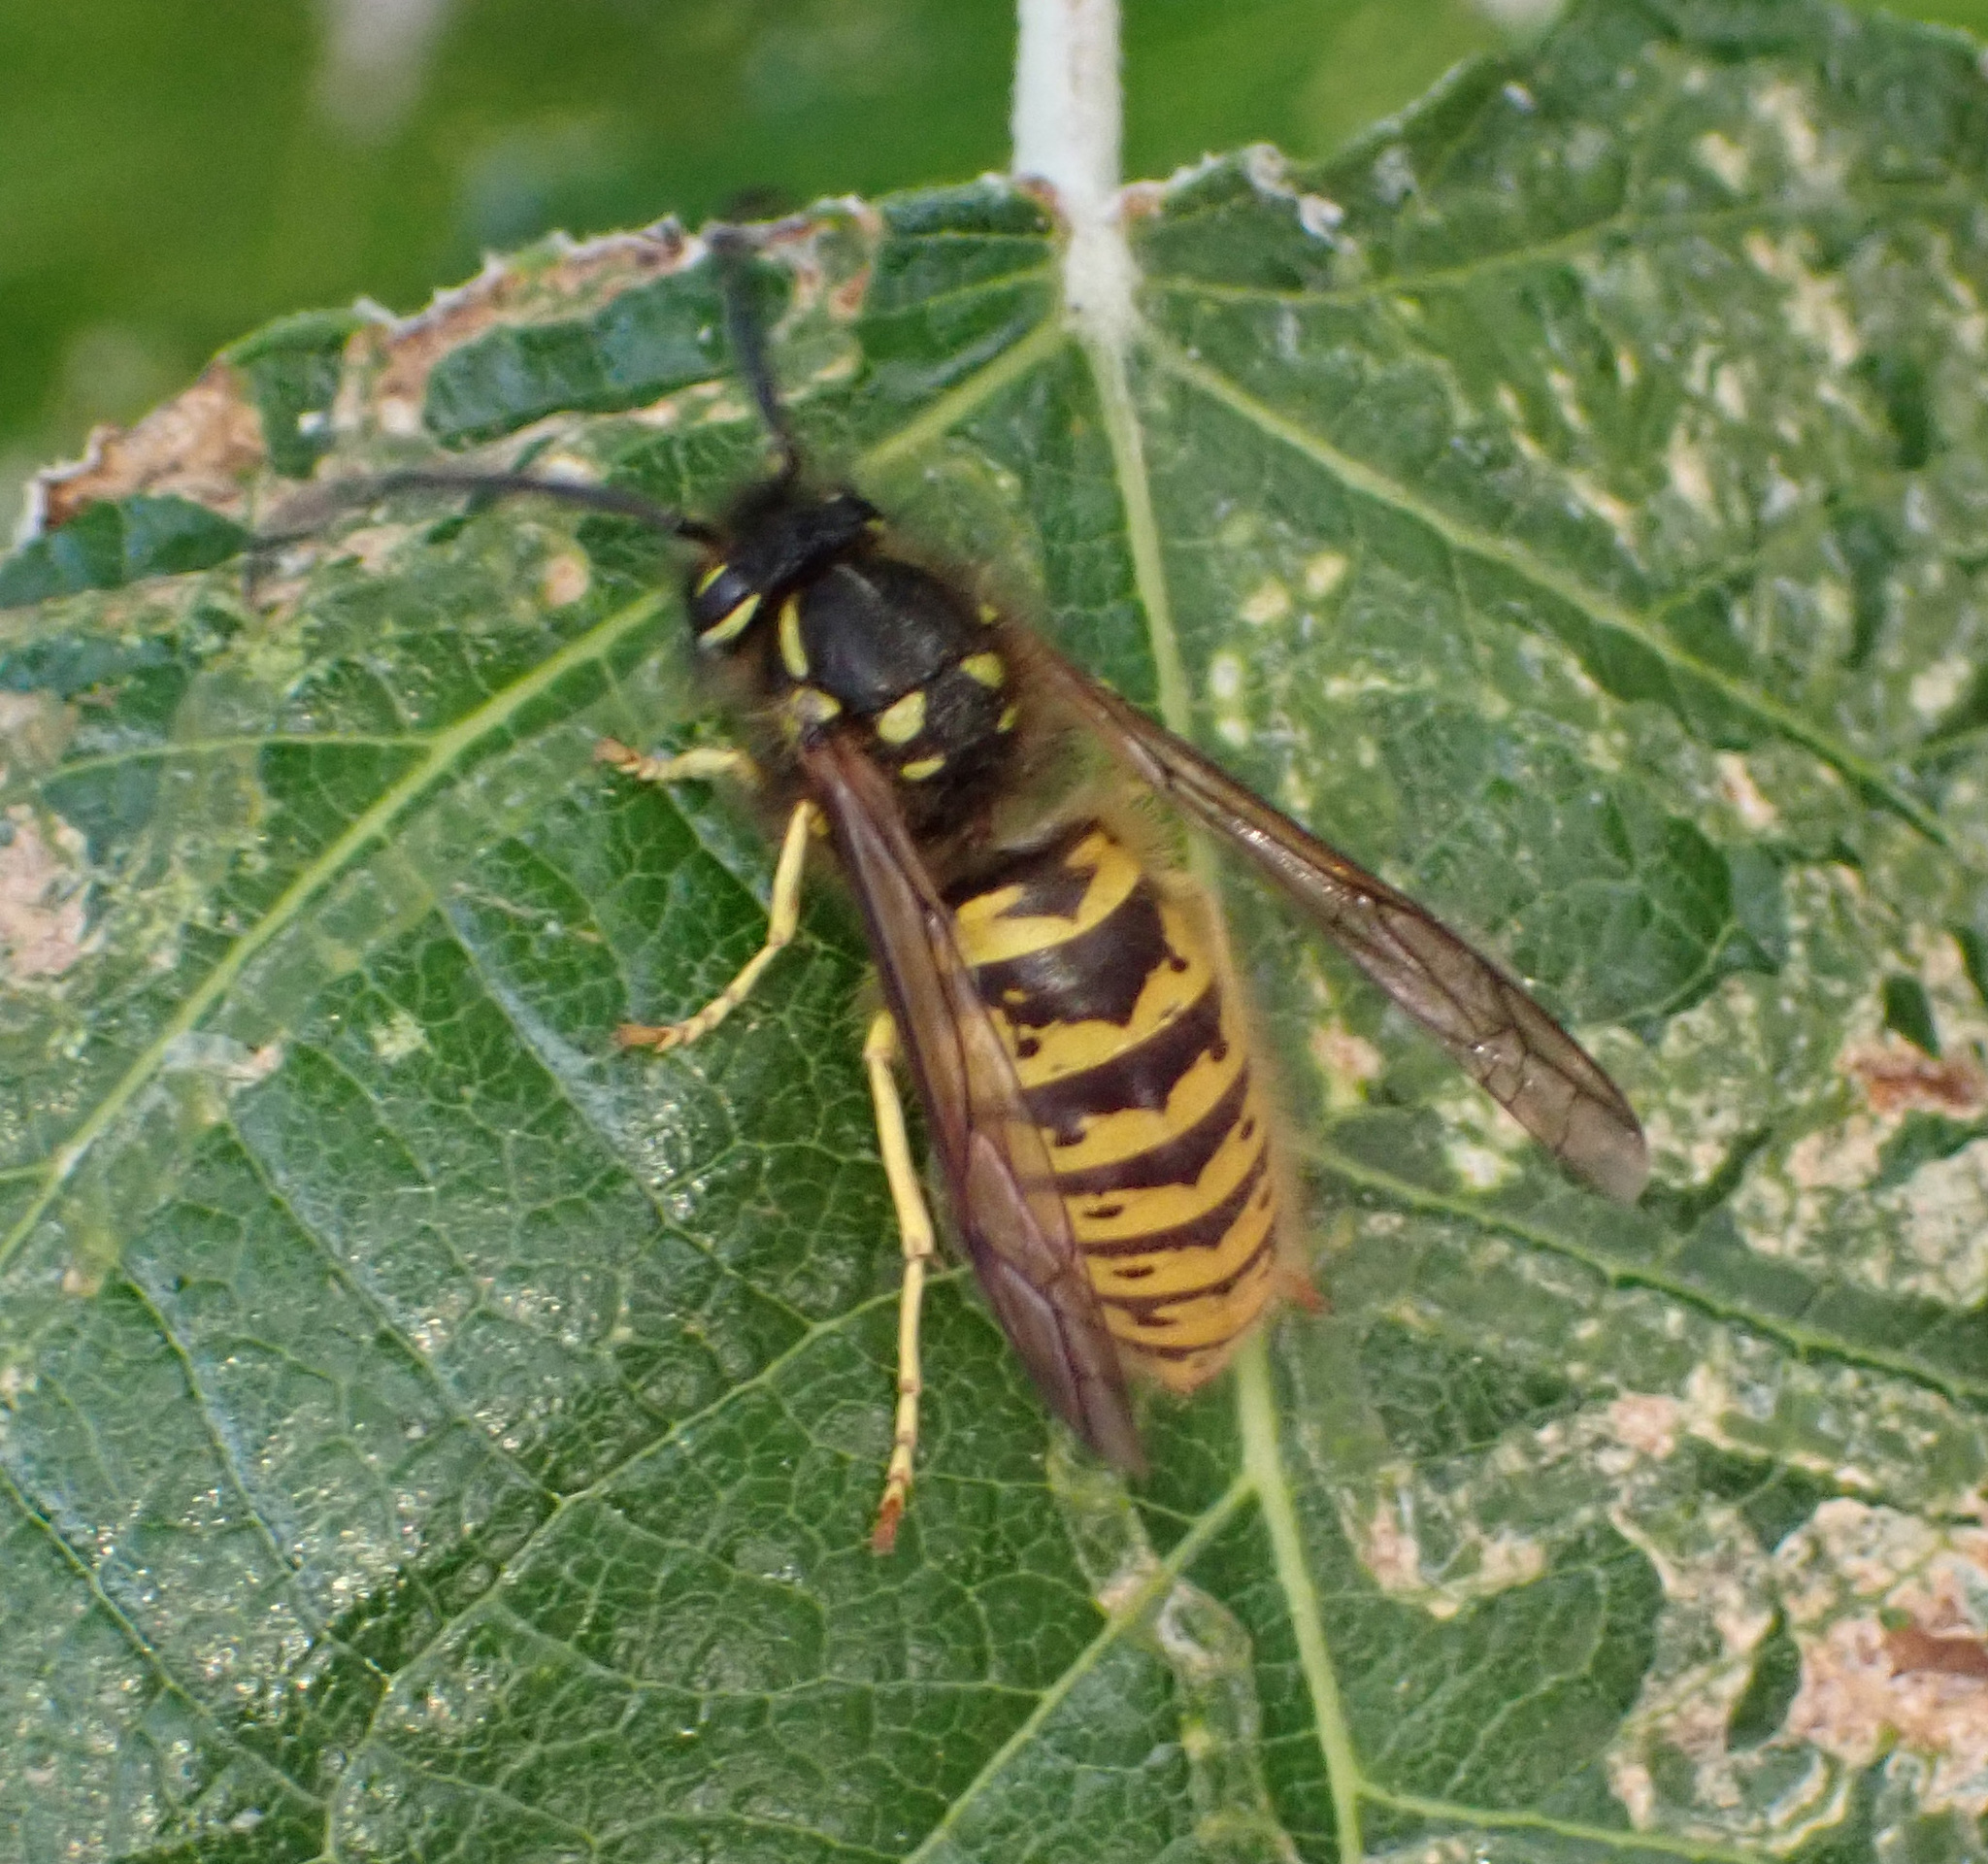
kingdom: Animalia
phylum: Arthropoda
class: Insecta
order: Hymenoptera
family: Vespidae
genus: Vespula
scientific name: Vespula vulgaris
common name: Common wasp
